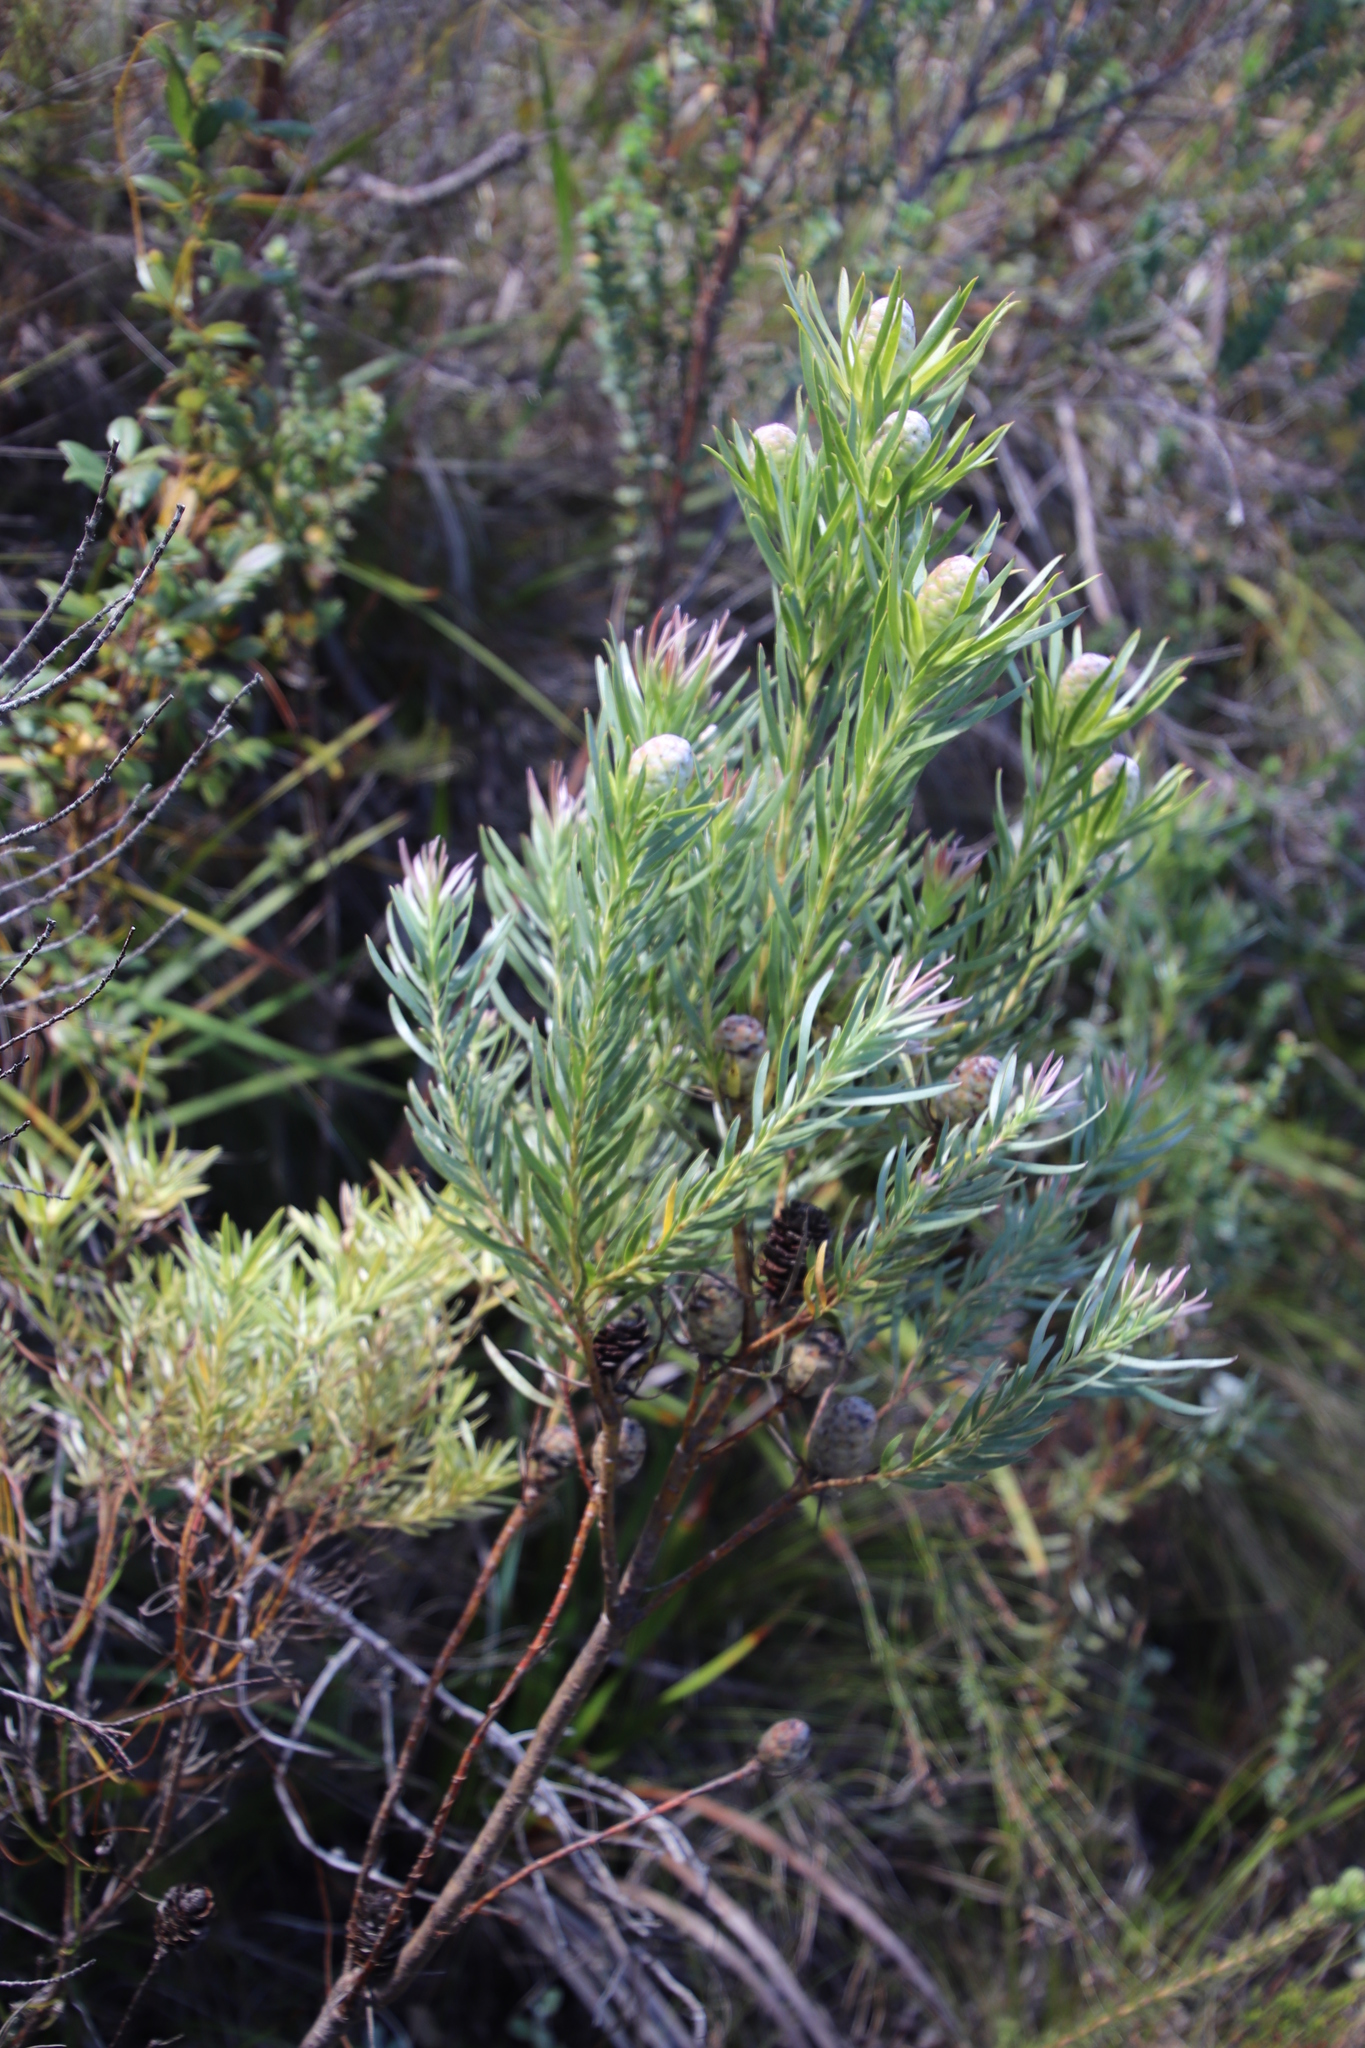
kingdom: Plantae
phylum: Tracheophyta
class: Magnoliopsida
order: Proteales
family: Proteaceae
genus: Leucadendron
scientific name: Leucadendron xanthoconus
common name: Sickle-leaf conebush
